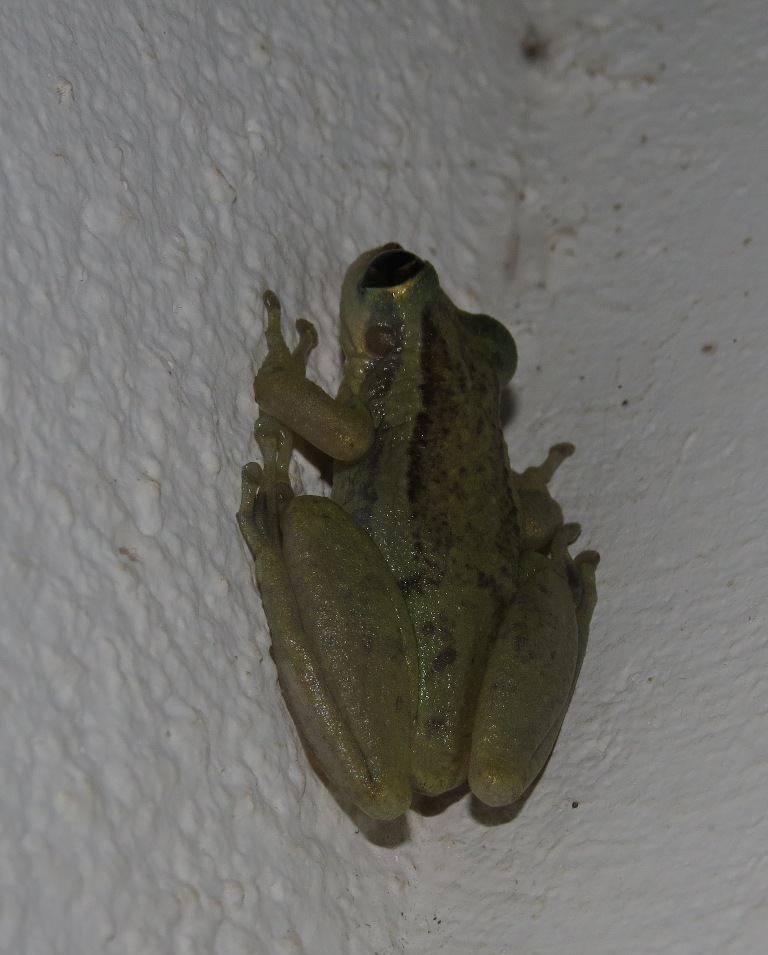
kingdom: Animalia
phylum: Chordata
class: Amphibia
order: Anura
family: Hylidae
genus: Scinax
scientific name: Scinax ruber
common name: Red snouted treefrog
